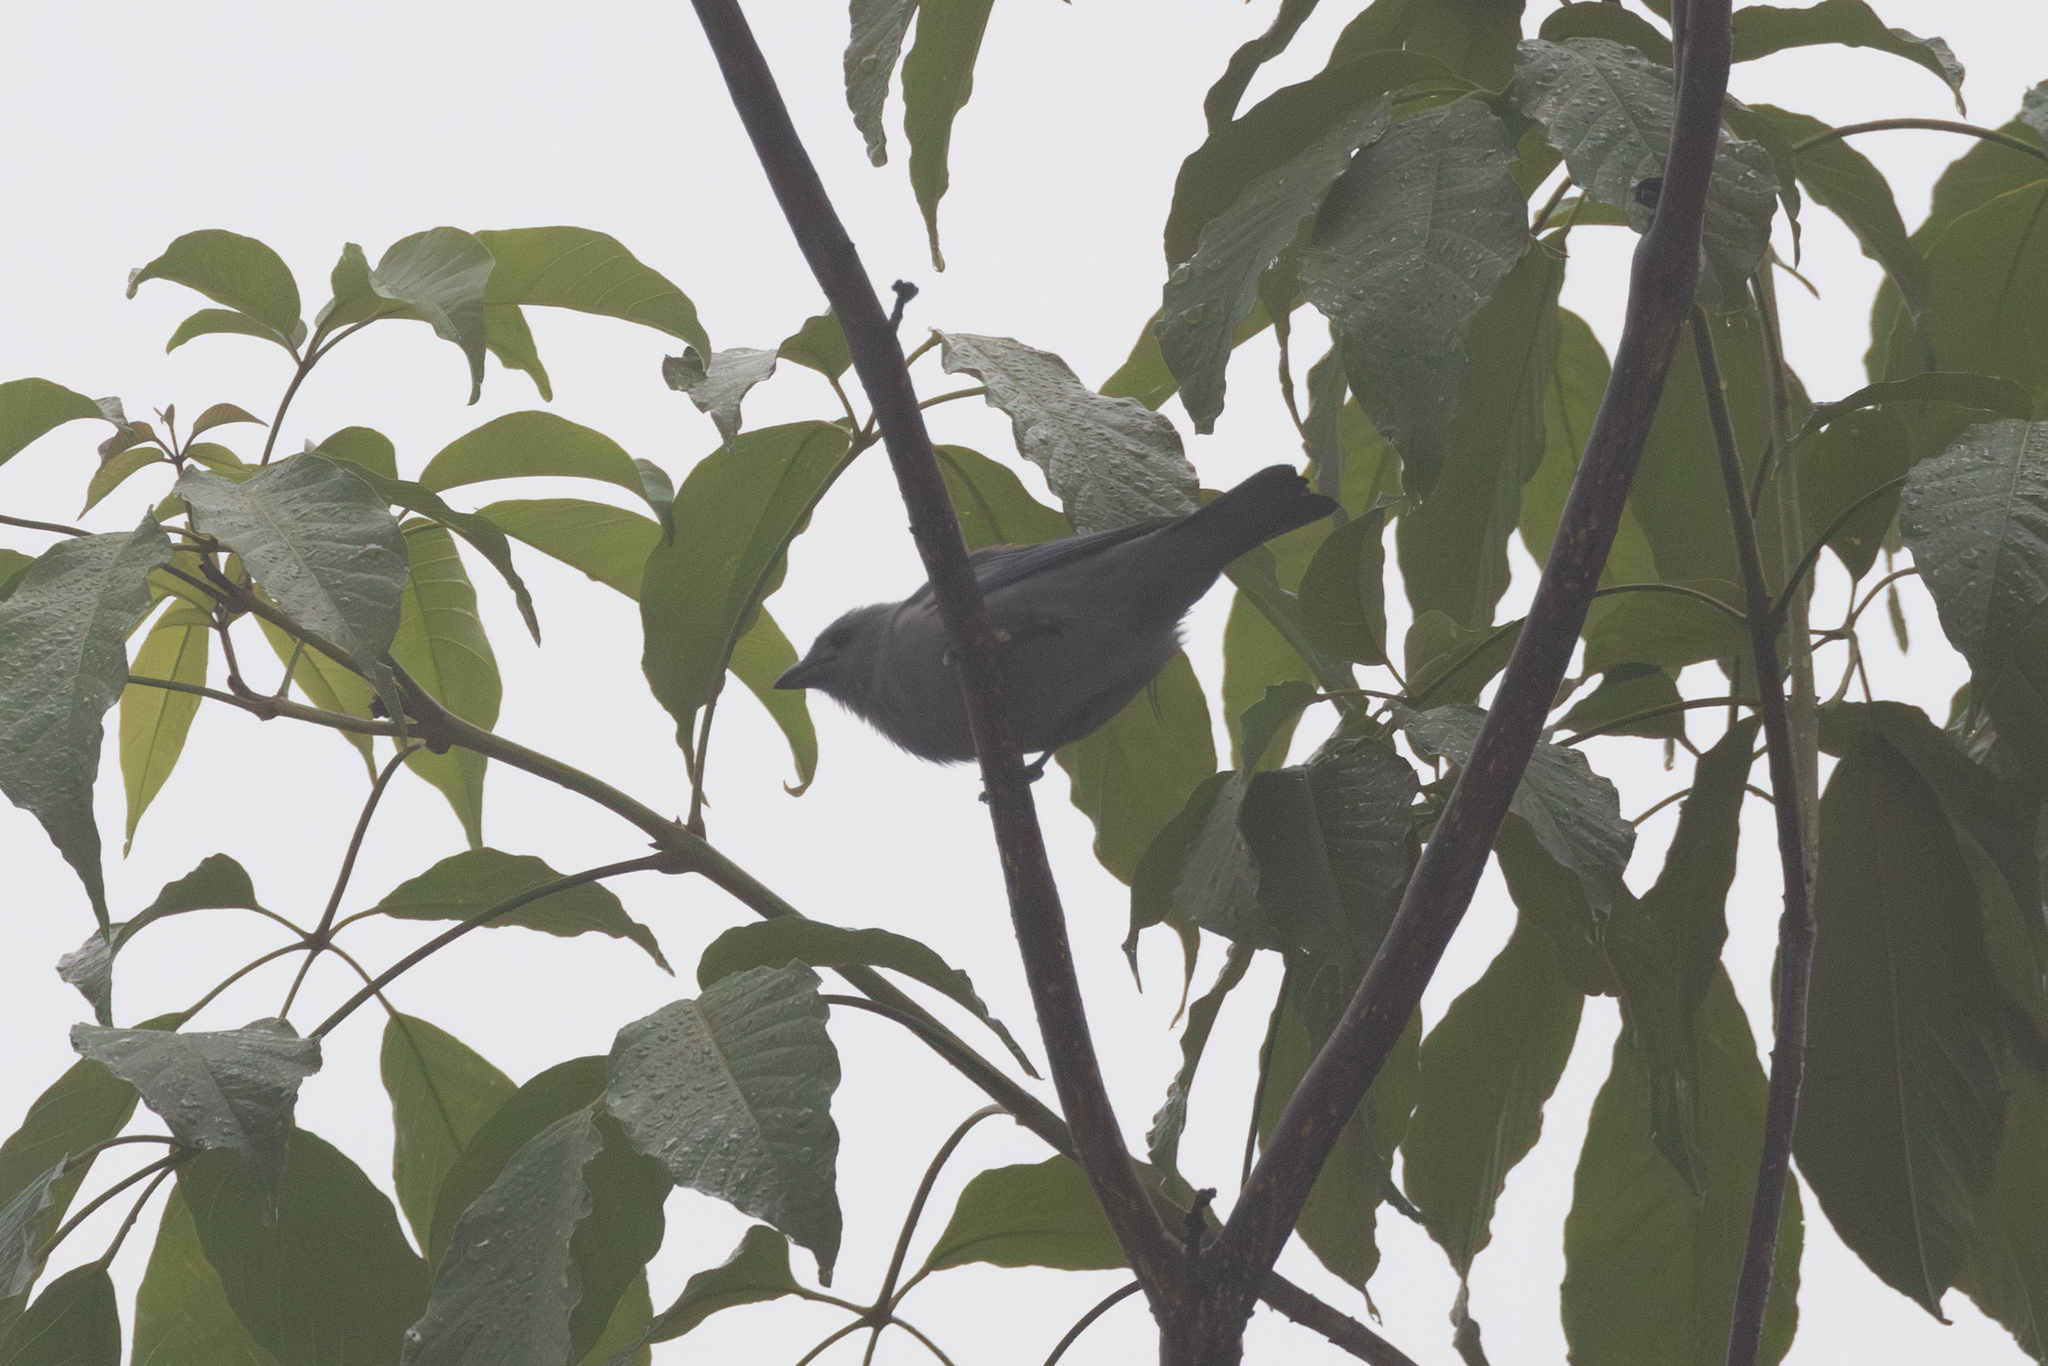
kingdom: Animalia
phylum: Chordata
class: Aves
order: Passeriformes
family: Thraupidae
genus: Thraupis
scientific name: Thraupis episcopus
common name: Blue-grey tanager
